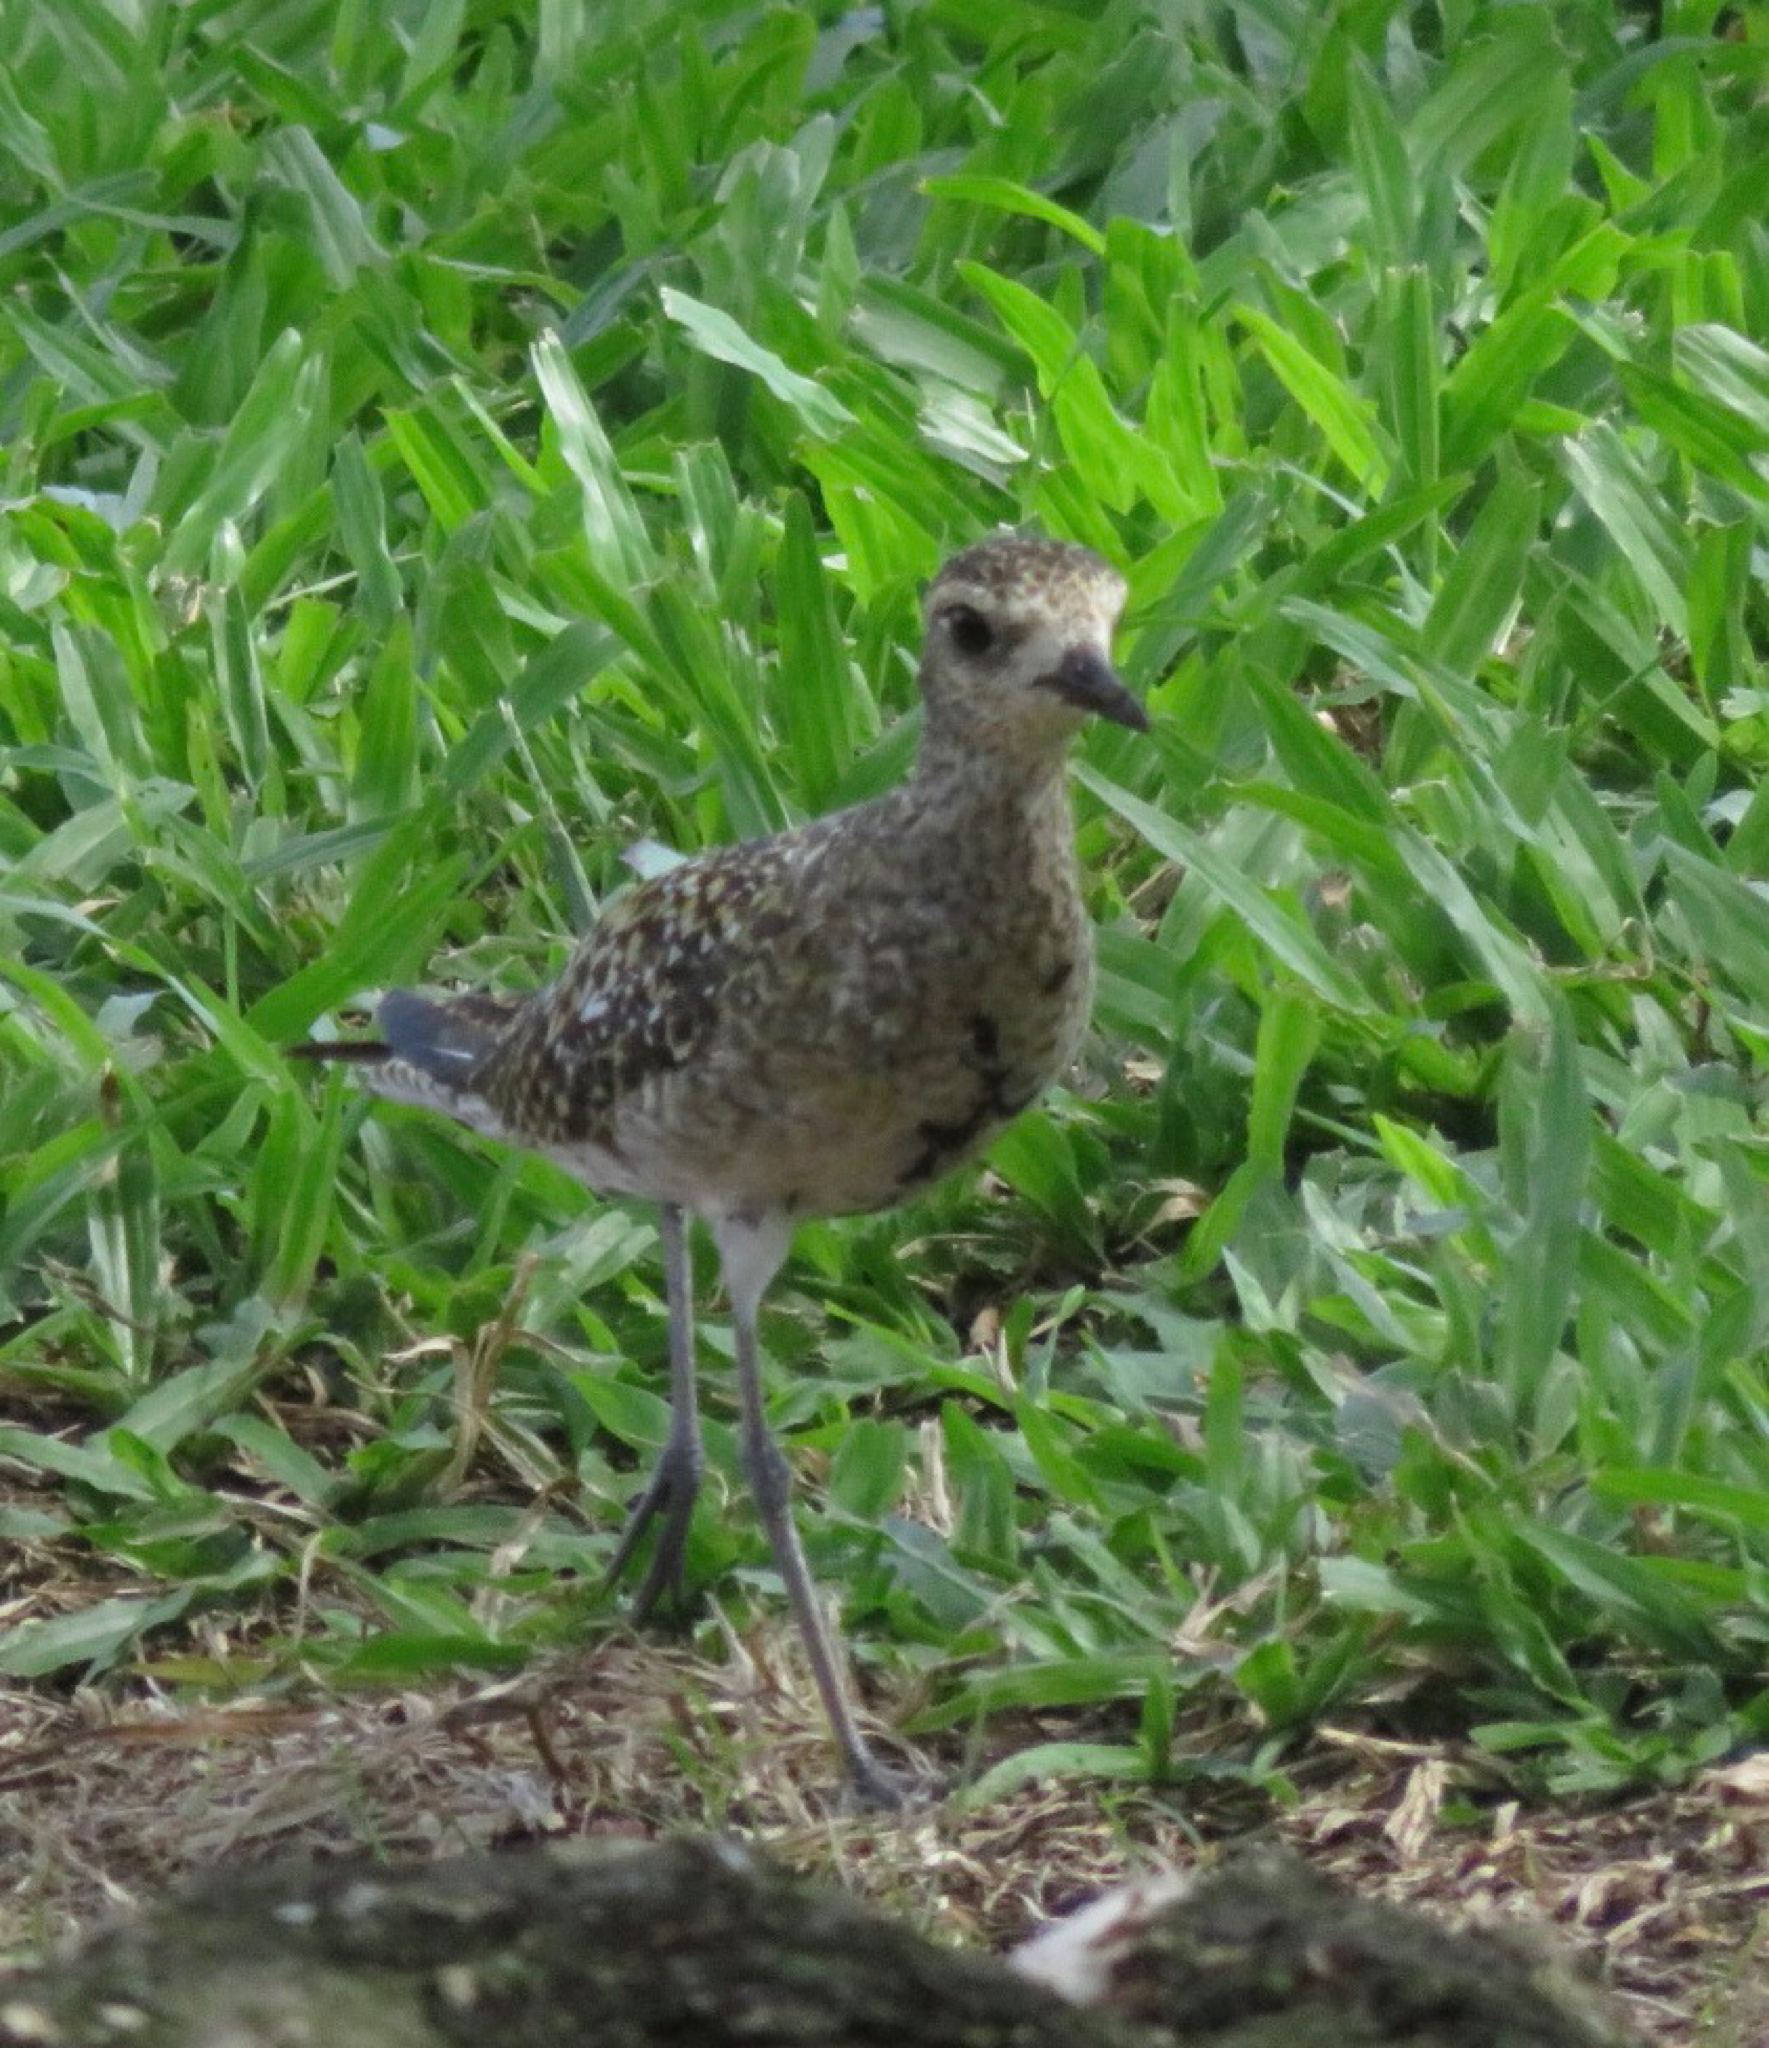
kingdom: Animalia
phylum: Chordata
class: Aves
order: Charadriiformes
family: Charadriidae
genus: Pluvialis
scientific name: Pluvialis fulva
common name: Pacific golden plover
